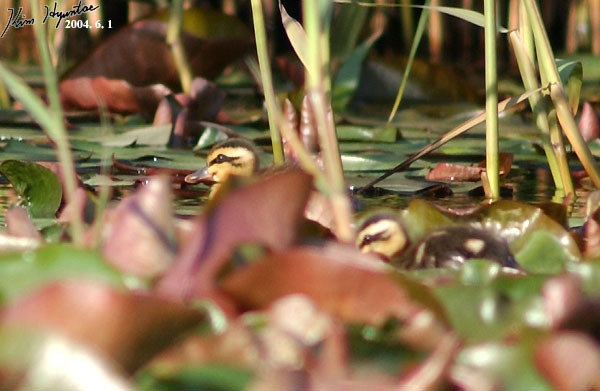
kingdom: Animalia
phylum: Chordata
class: Aves
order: Anseriformes
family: Anatidae
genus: Anas
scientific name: Anas zonorhyncha
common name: Eastern spot-billed duck
